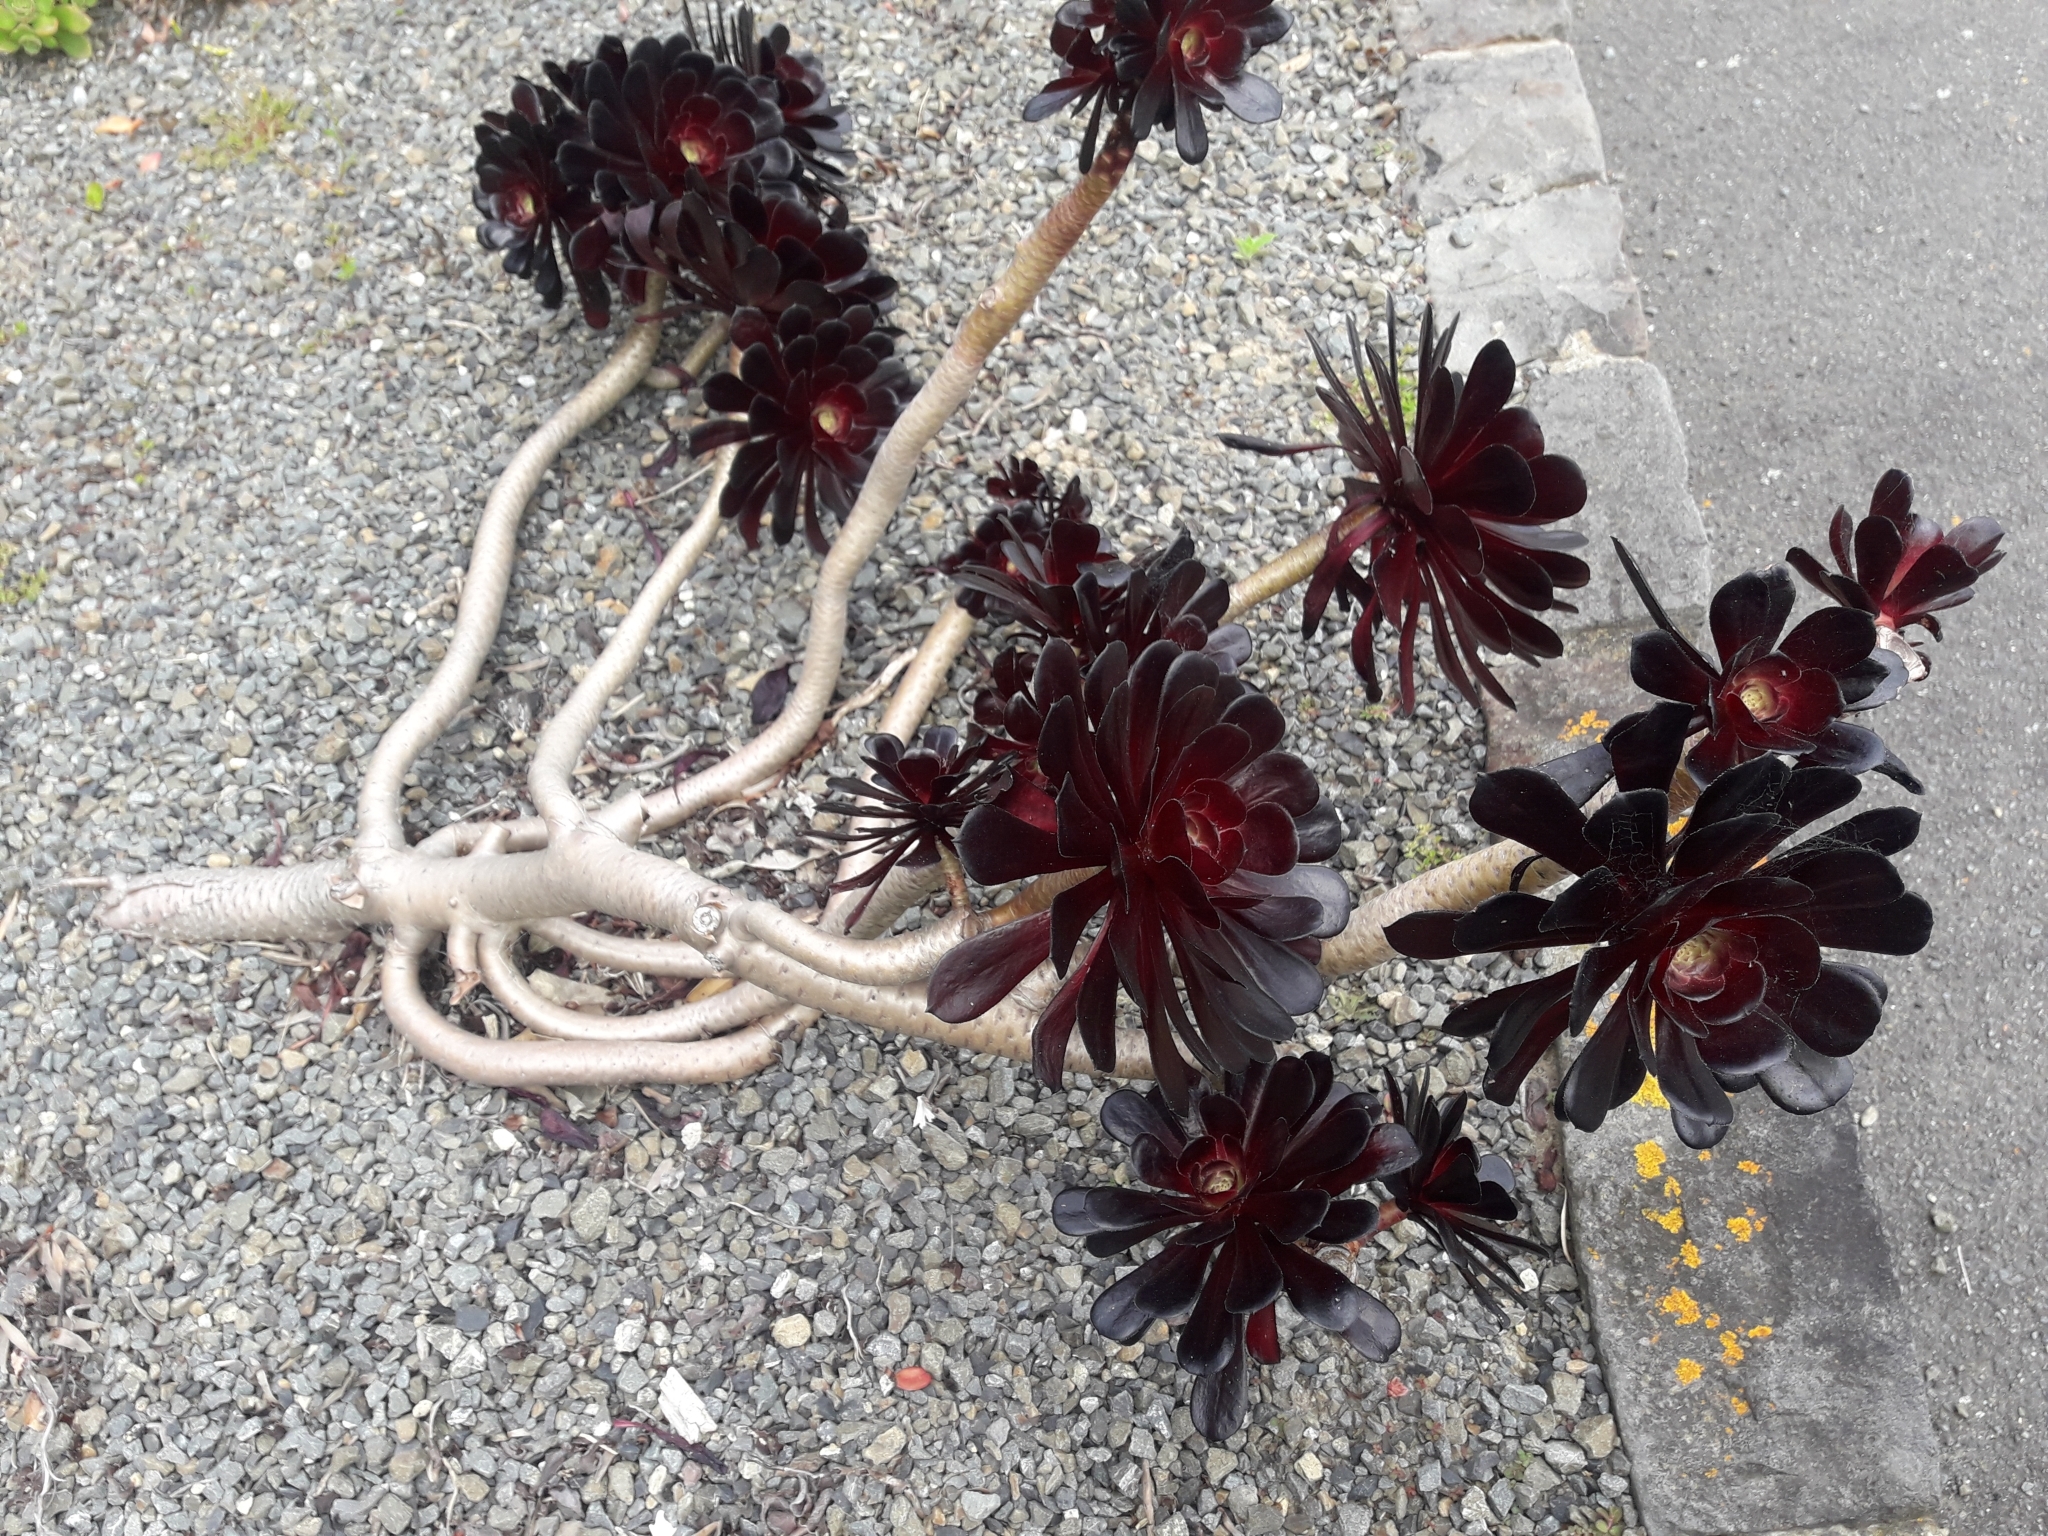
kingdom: Plantae
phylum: Tracheophyta
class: Magnoliopsida
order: Saxifragales
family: Crassulaceae
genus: Aeonium
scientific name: Aeonium arboreum
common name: Tree aeonium
